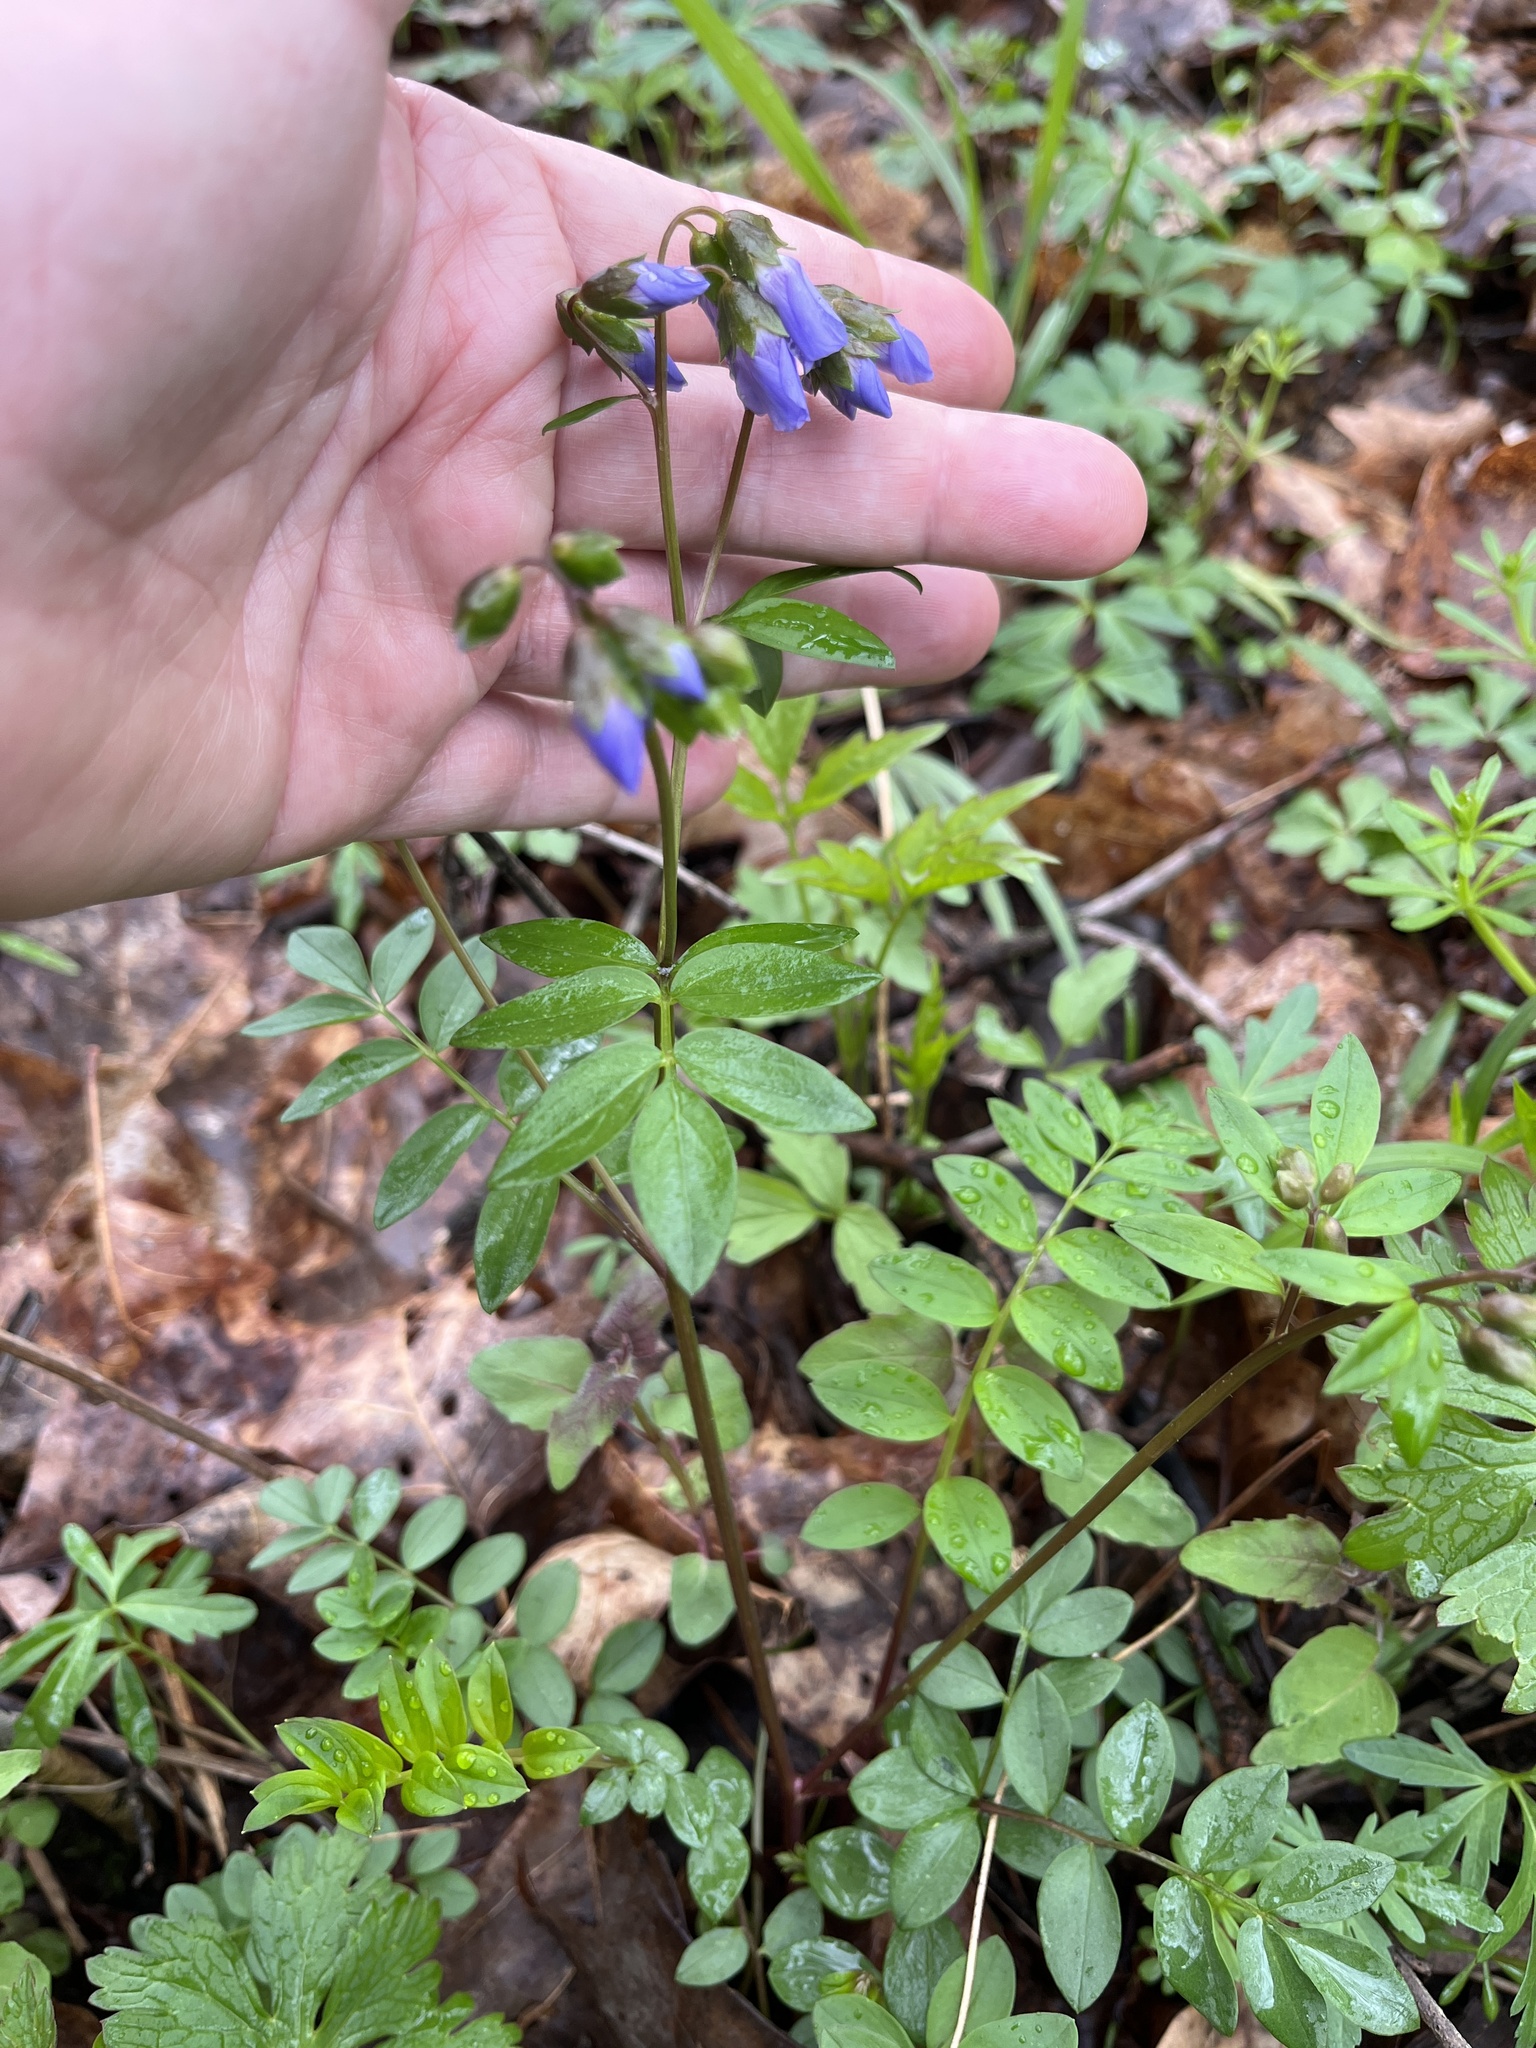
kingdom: Plantae
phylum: Tracheophyta
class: Magnoliopsida
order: Ericales
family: Polemoniaceae
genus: Polemonium
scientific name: Polemonium reptans
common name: Creeping jacob's-ladder
